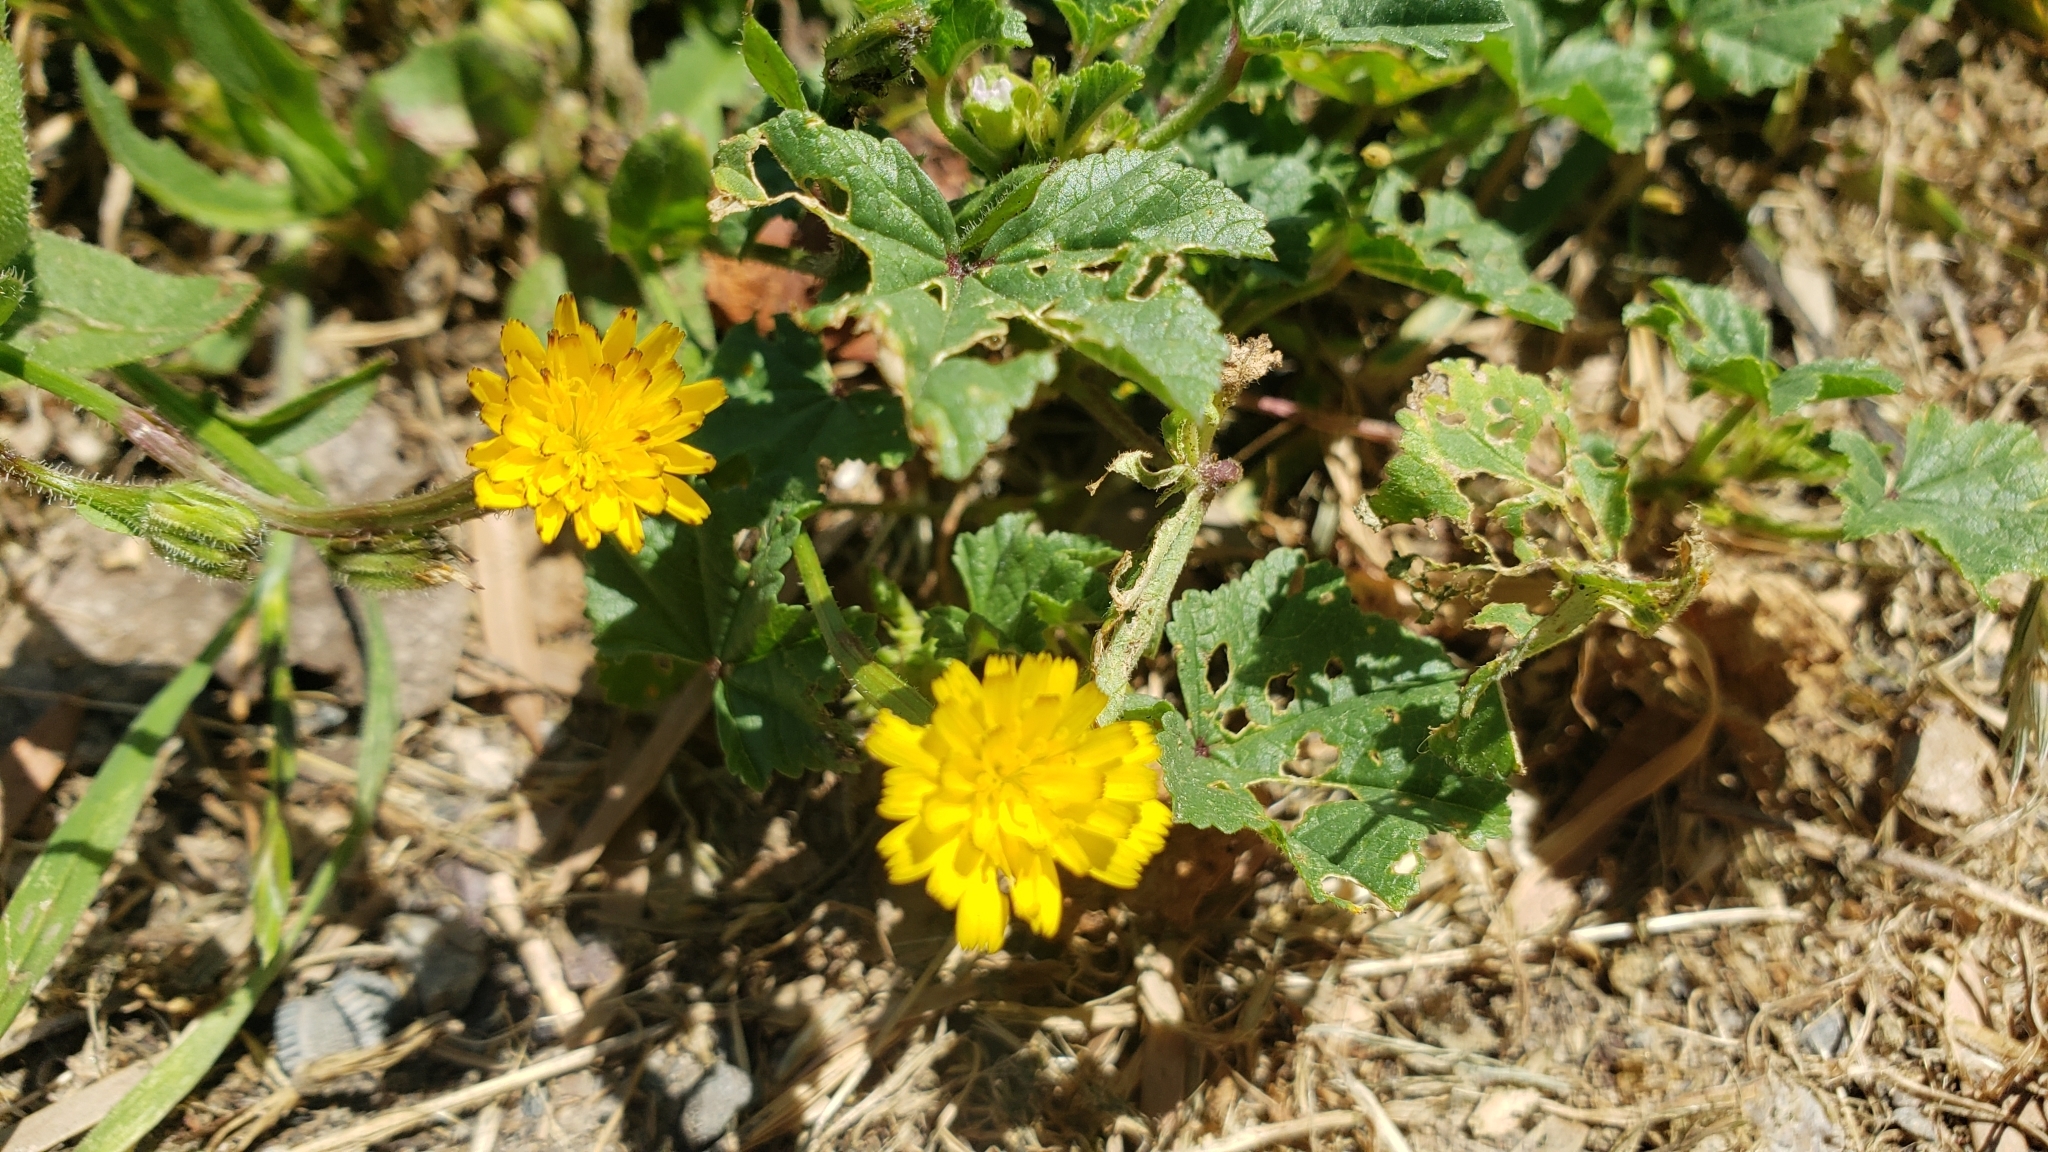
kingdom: Plantae
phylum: Tracheophyta
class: Magnoliopsida
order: Asterales
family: Asteraceae
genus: Hedypnois
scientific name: Hedypnois rhagadioloides
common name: Cretan weed
